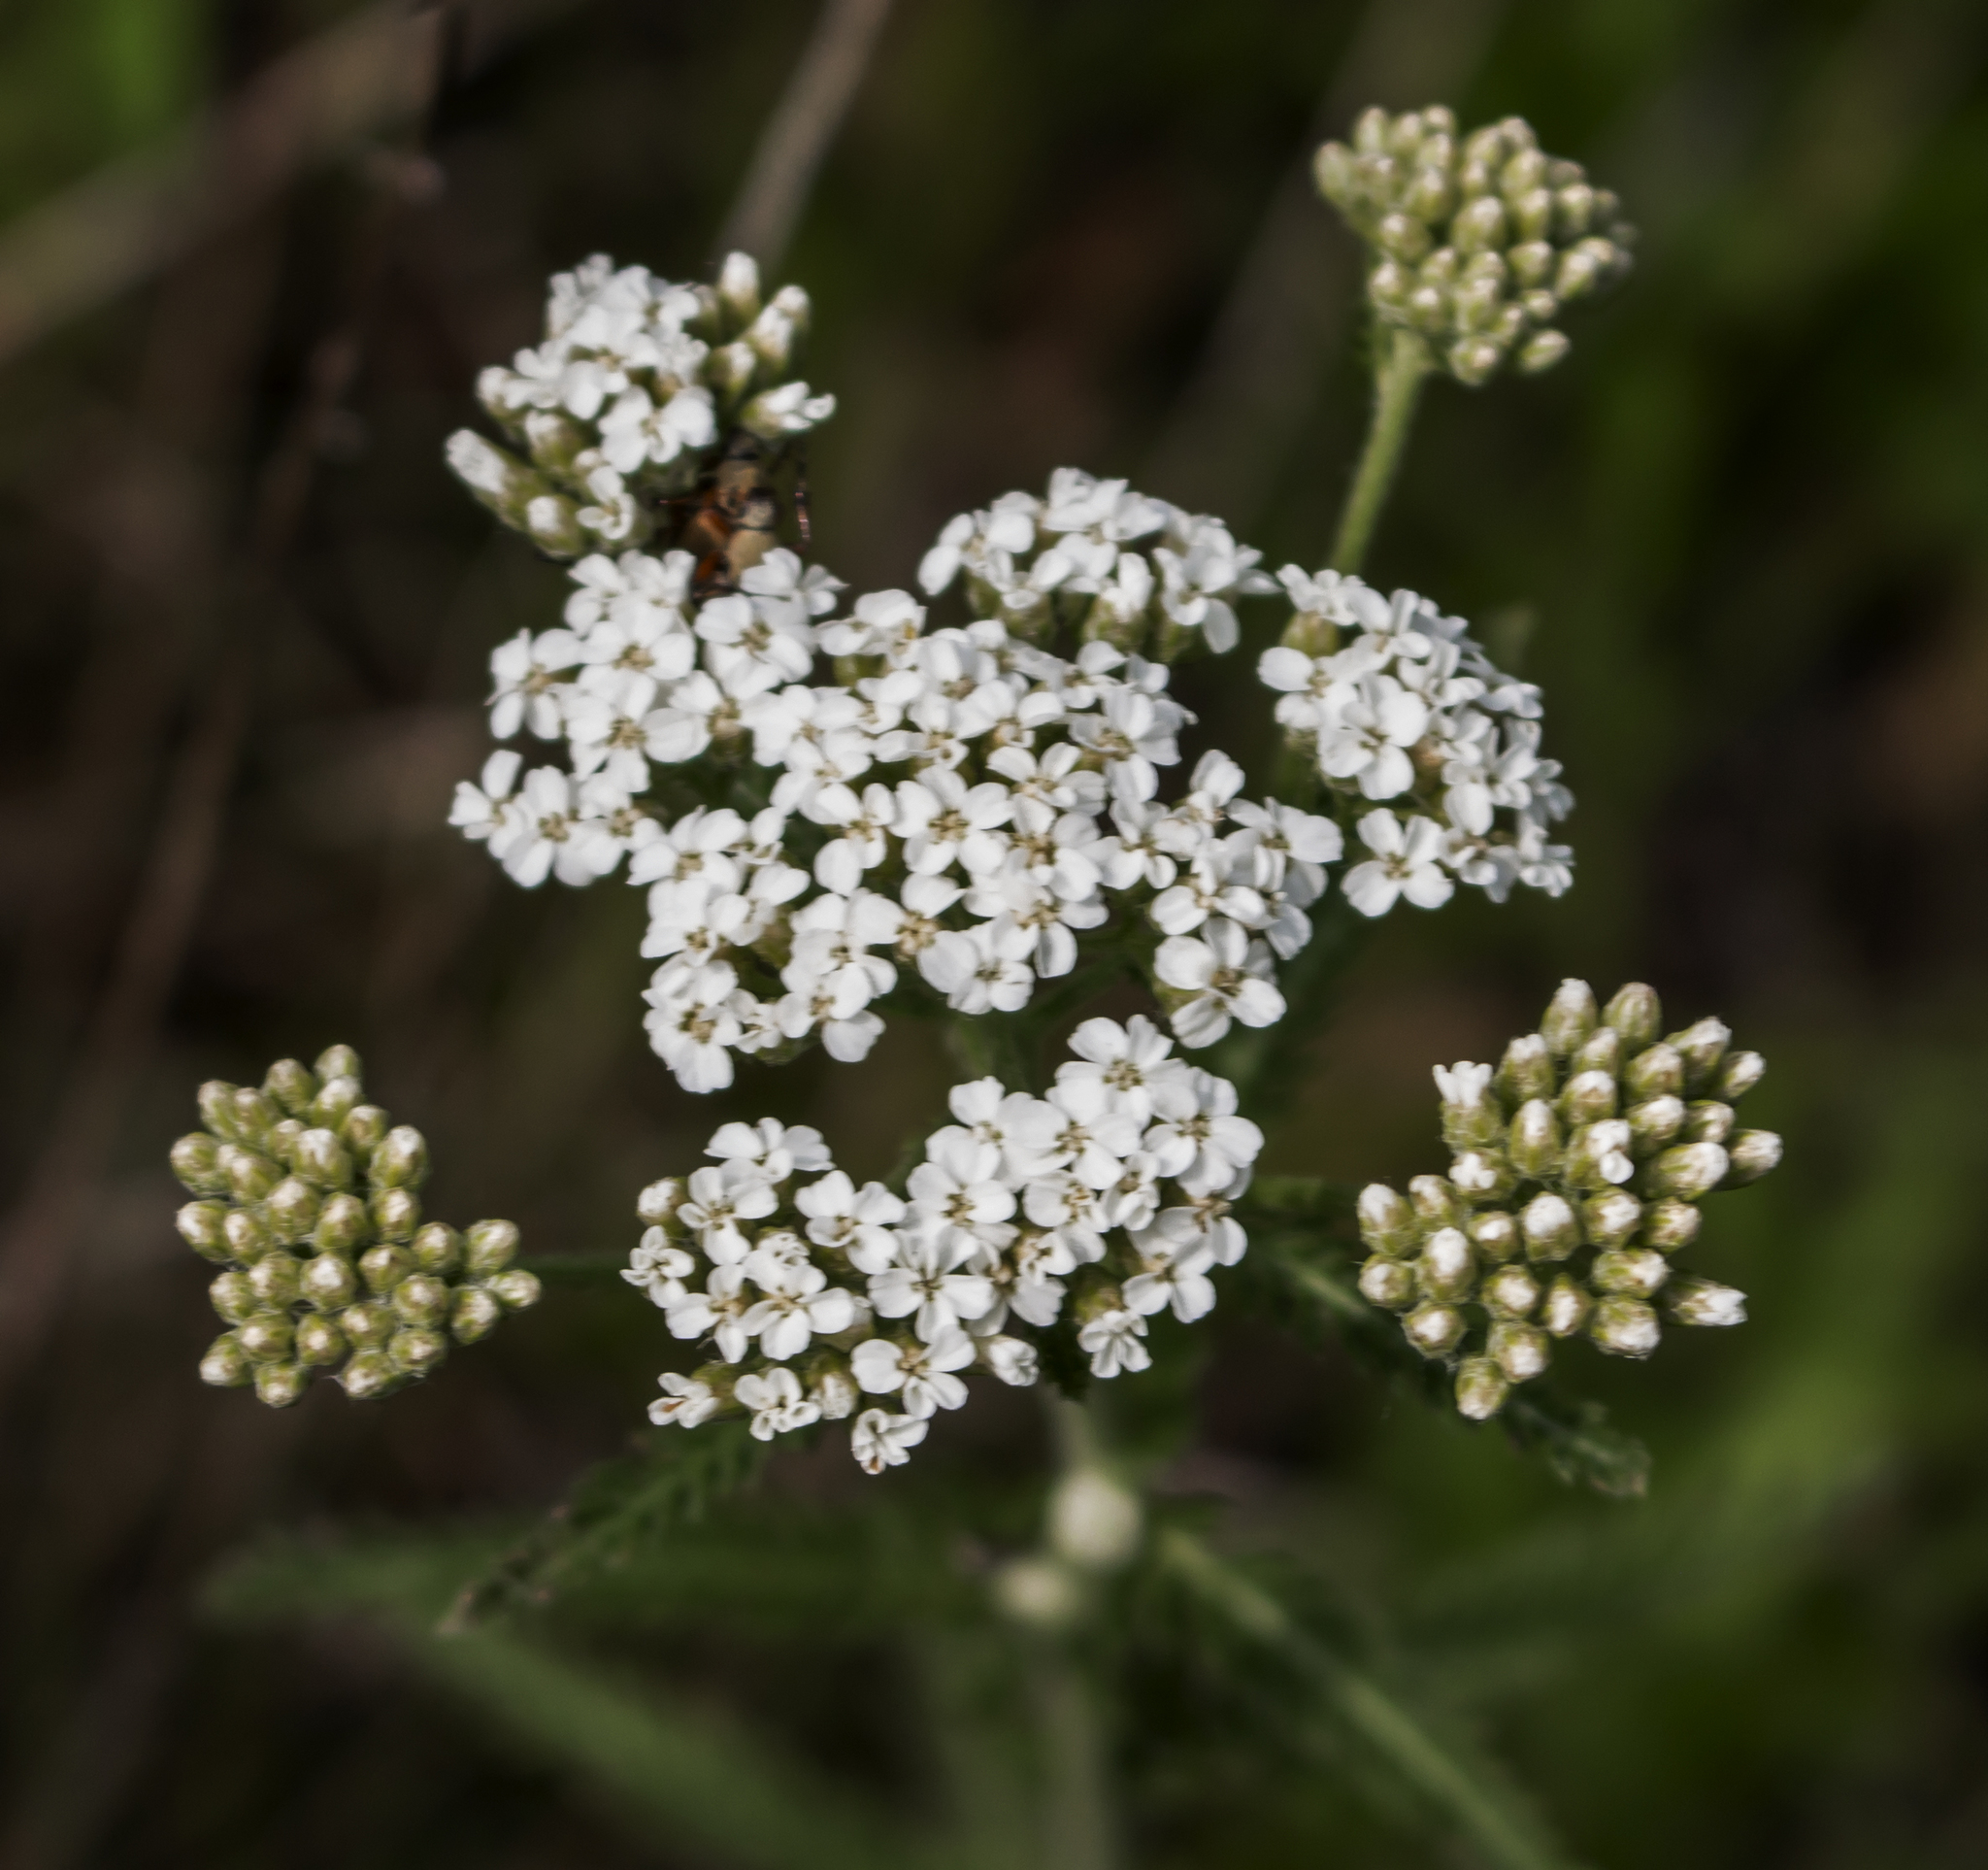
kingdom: Plantae
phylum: Tracheophyta
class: Magnoliopsida
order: Asterales
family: Asteraceae
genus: Achillea
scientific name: Achillea millefolium
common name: Yarrow
